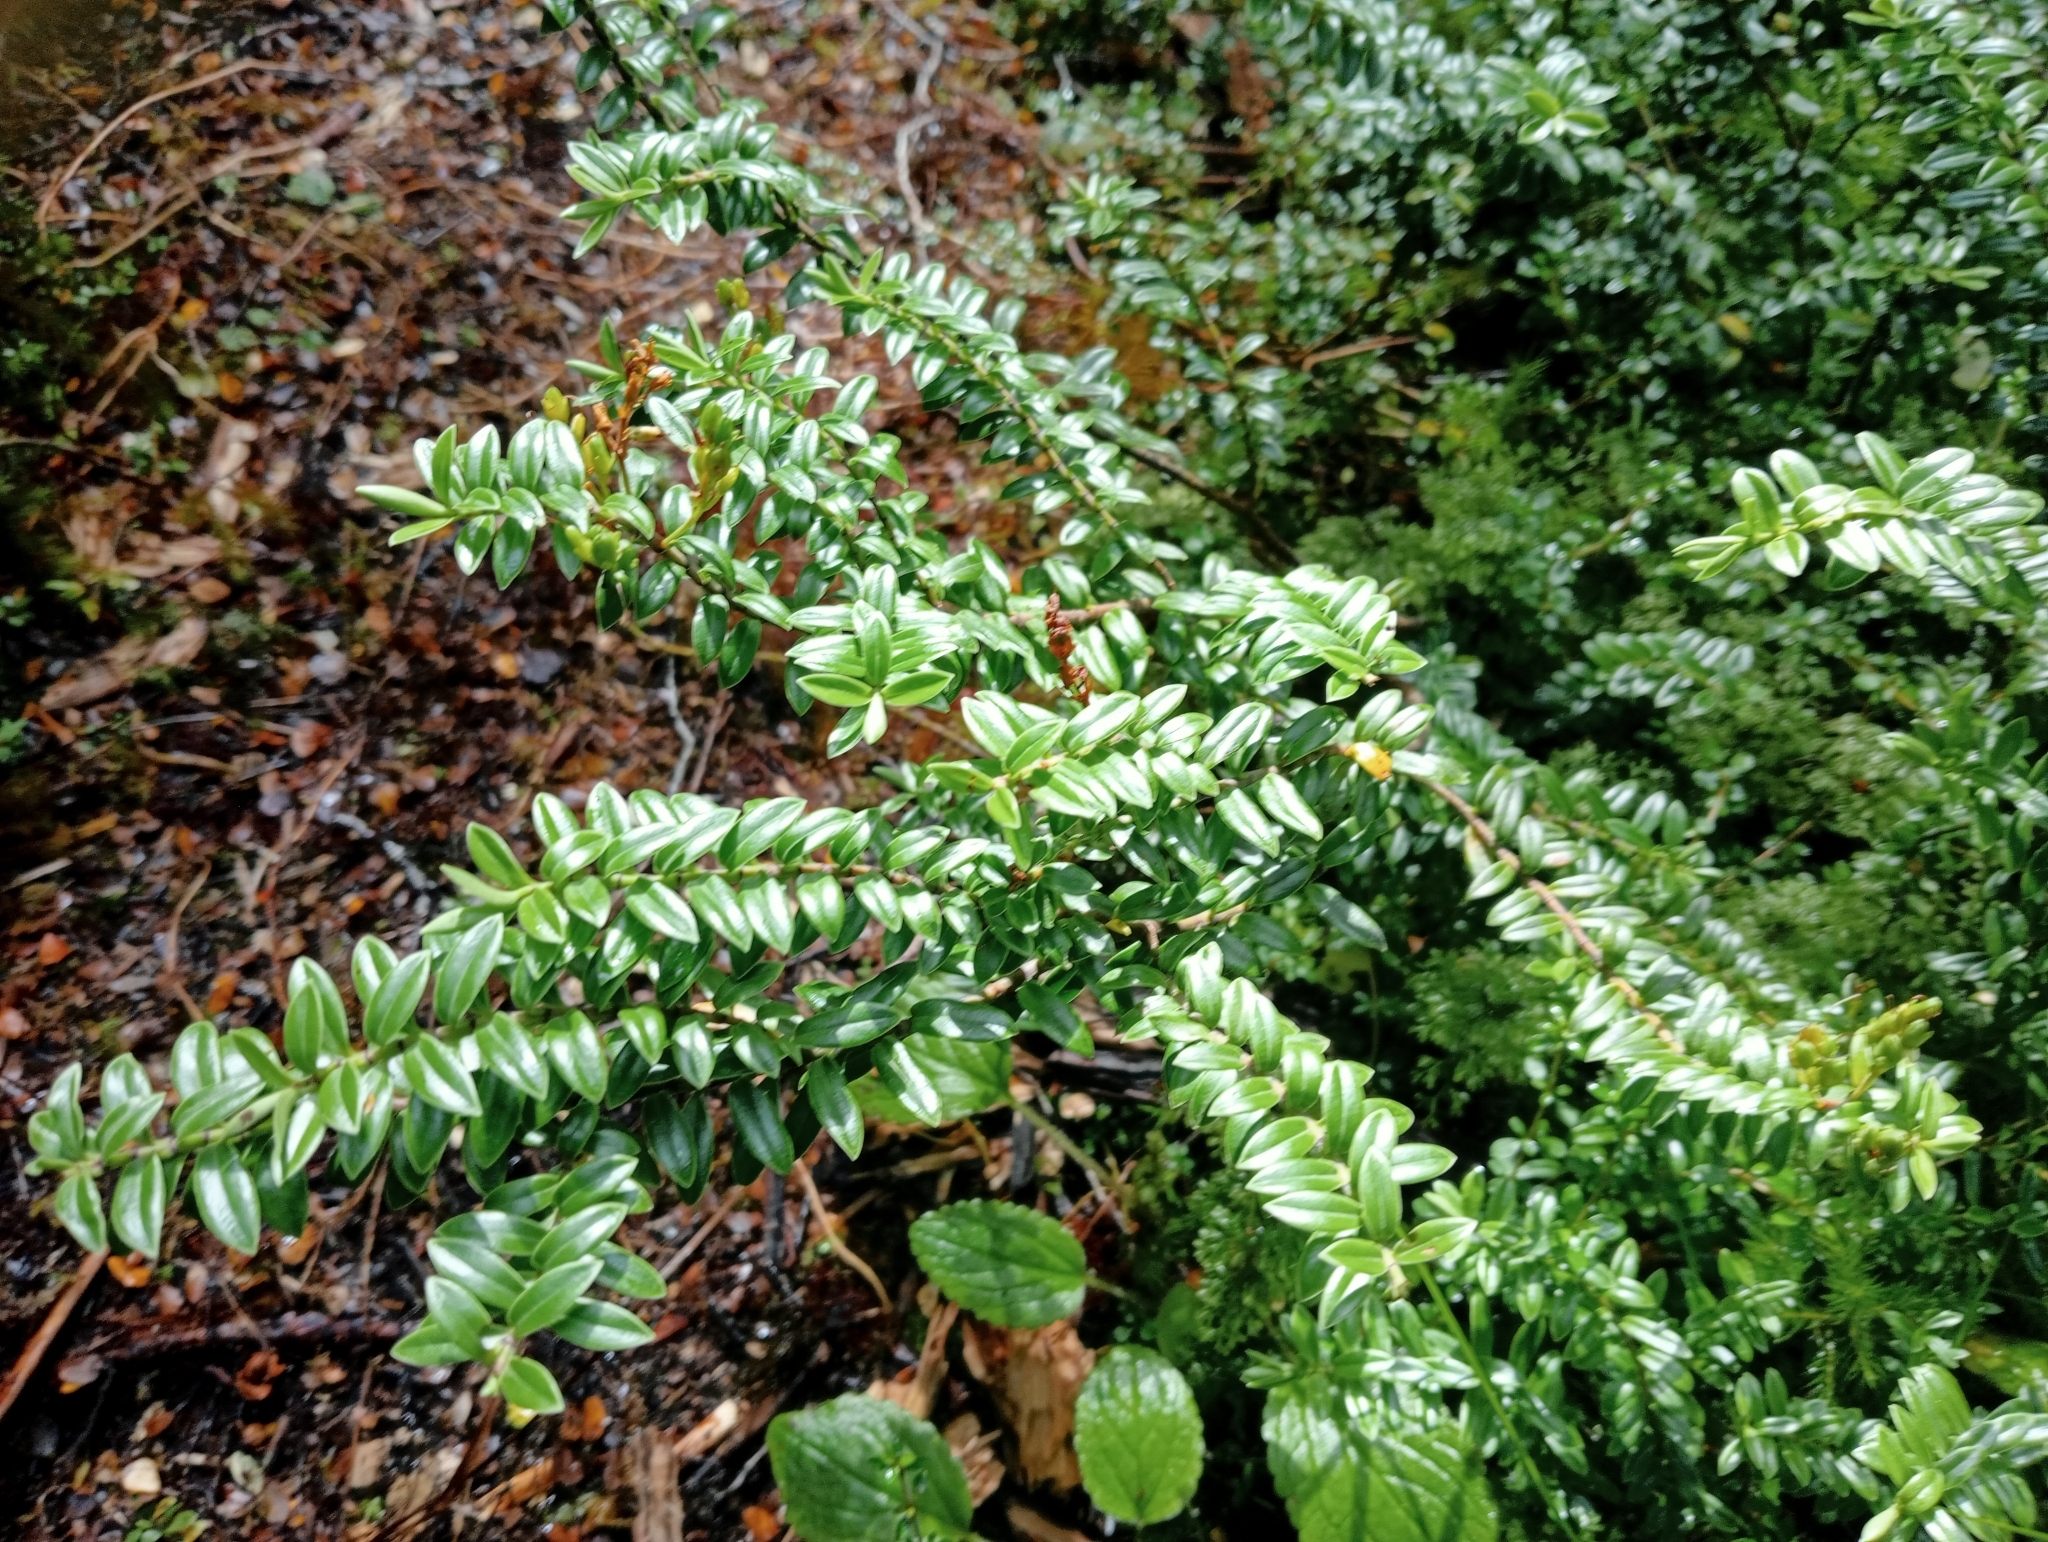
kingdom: Plantae
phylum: Tracheophyta
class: Magnoliopsida
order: Lamiales
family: Plantaginaceae
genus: Veronica
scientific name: Veronica vernicosa
